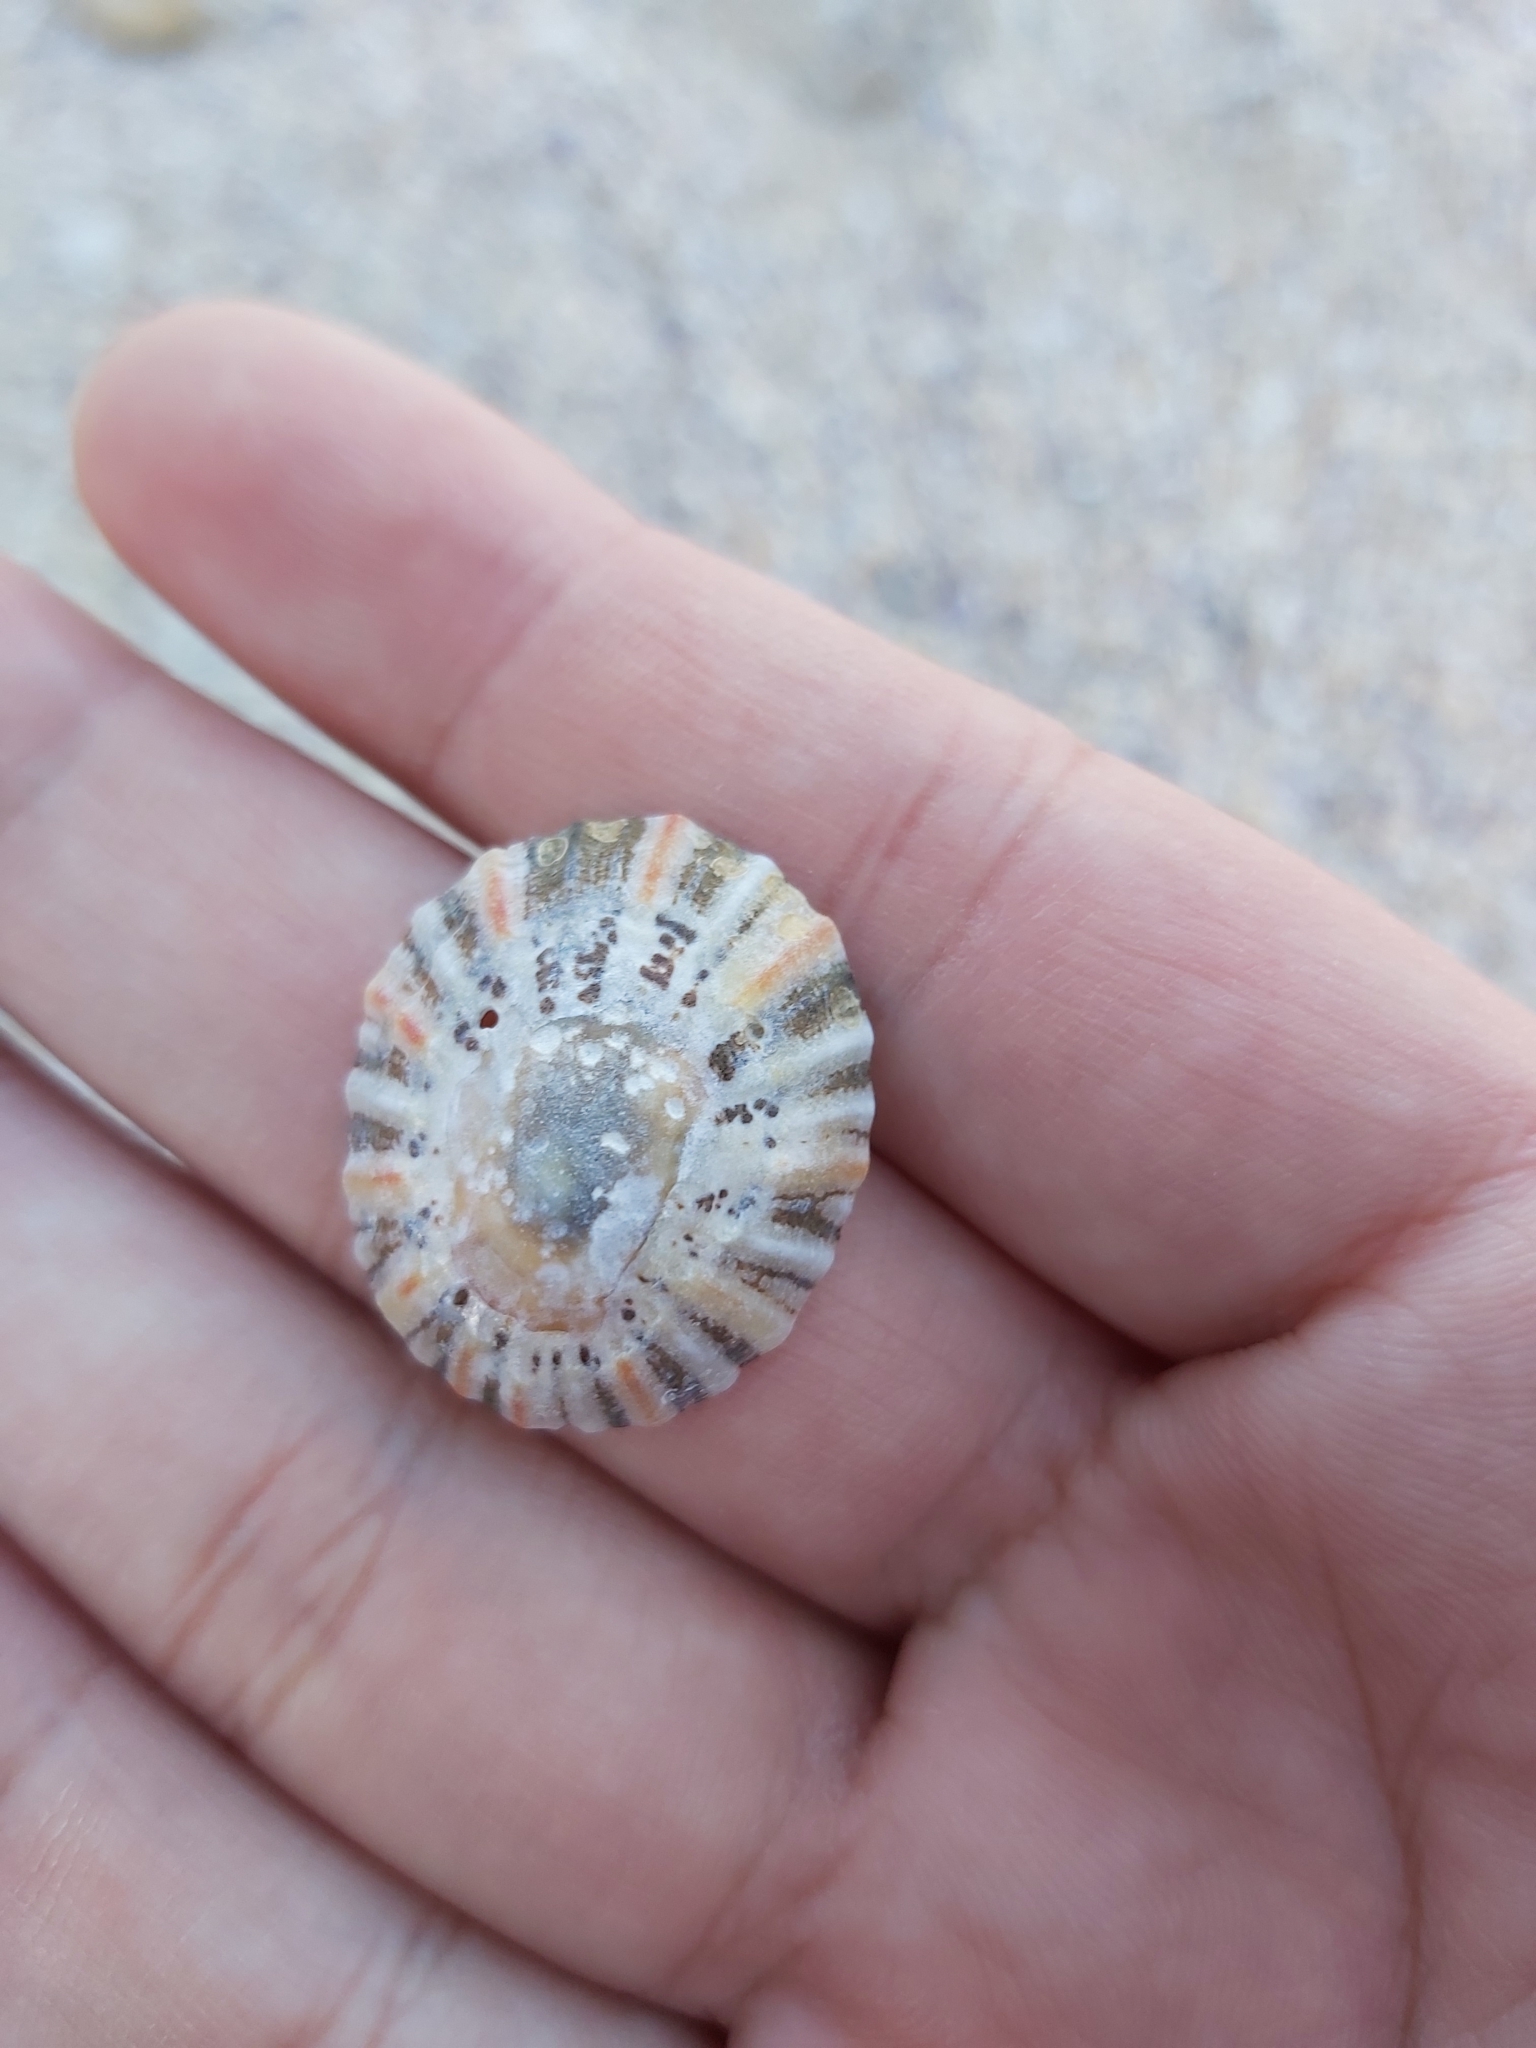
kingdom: Animalia
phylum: Mollusca
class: Gastropoda
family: Nacellidae
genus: Cellana
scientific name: Cellana tramoserica
